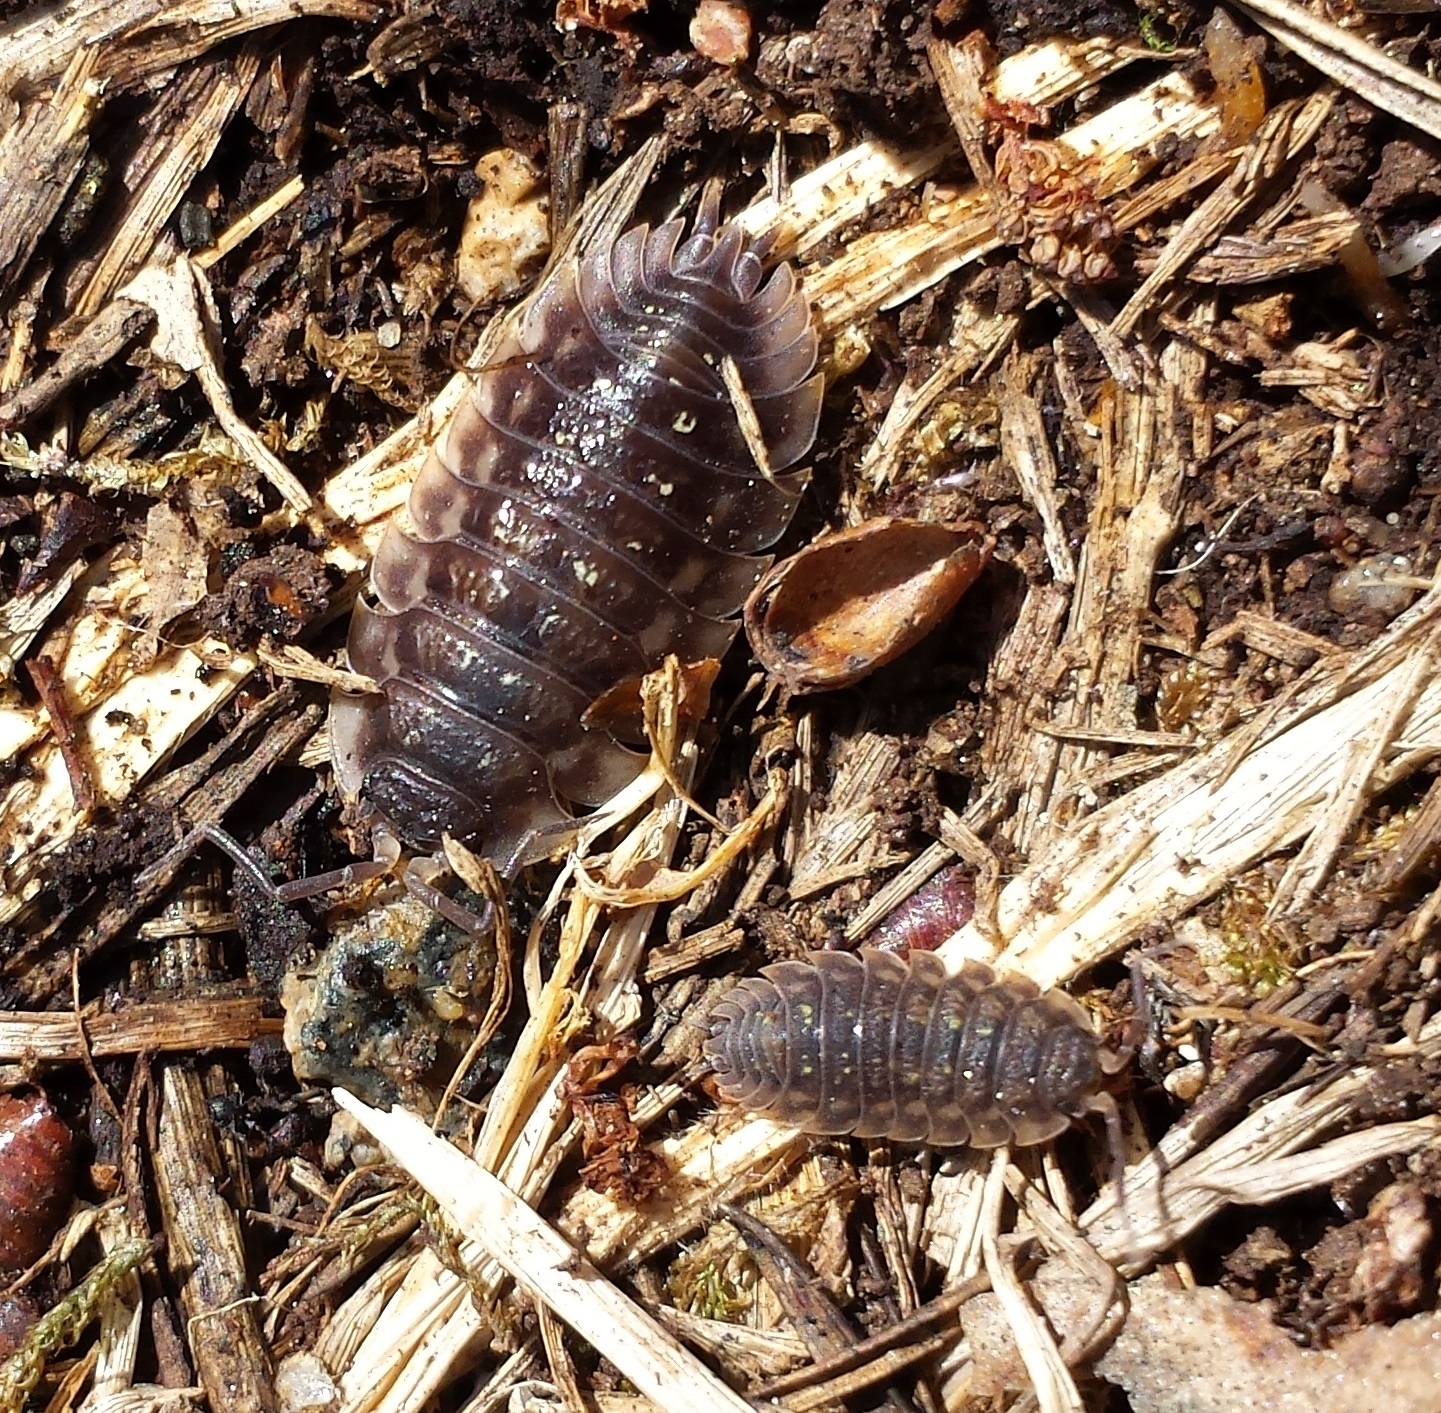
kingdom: Animalia
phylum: Arthropoda
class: Malacostraca
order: Isopoda
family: Oniscidae
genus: Oniscus
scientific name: Oniscus asellus
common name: Common shiny woodlouse
